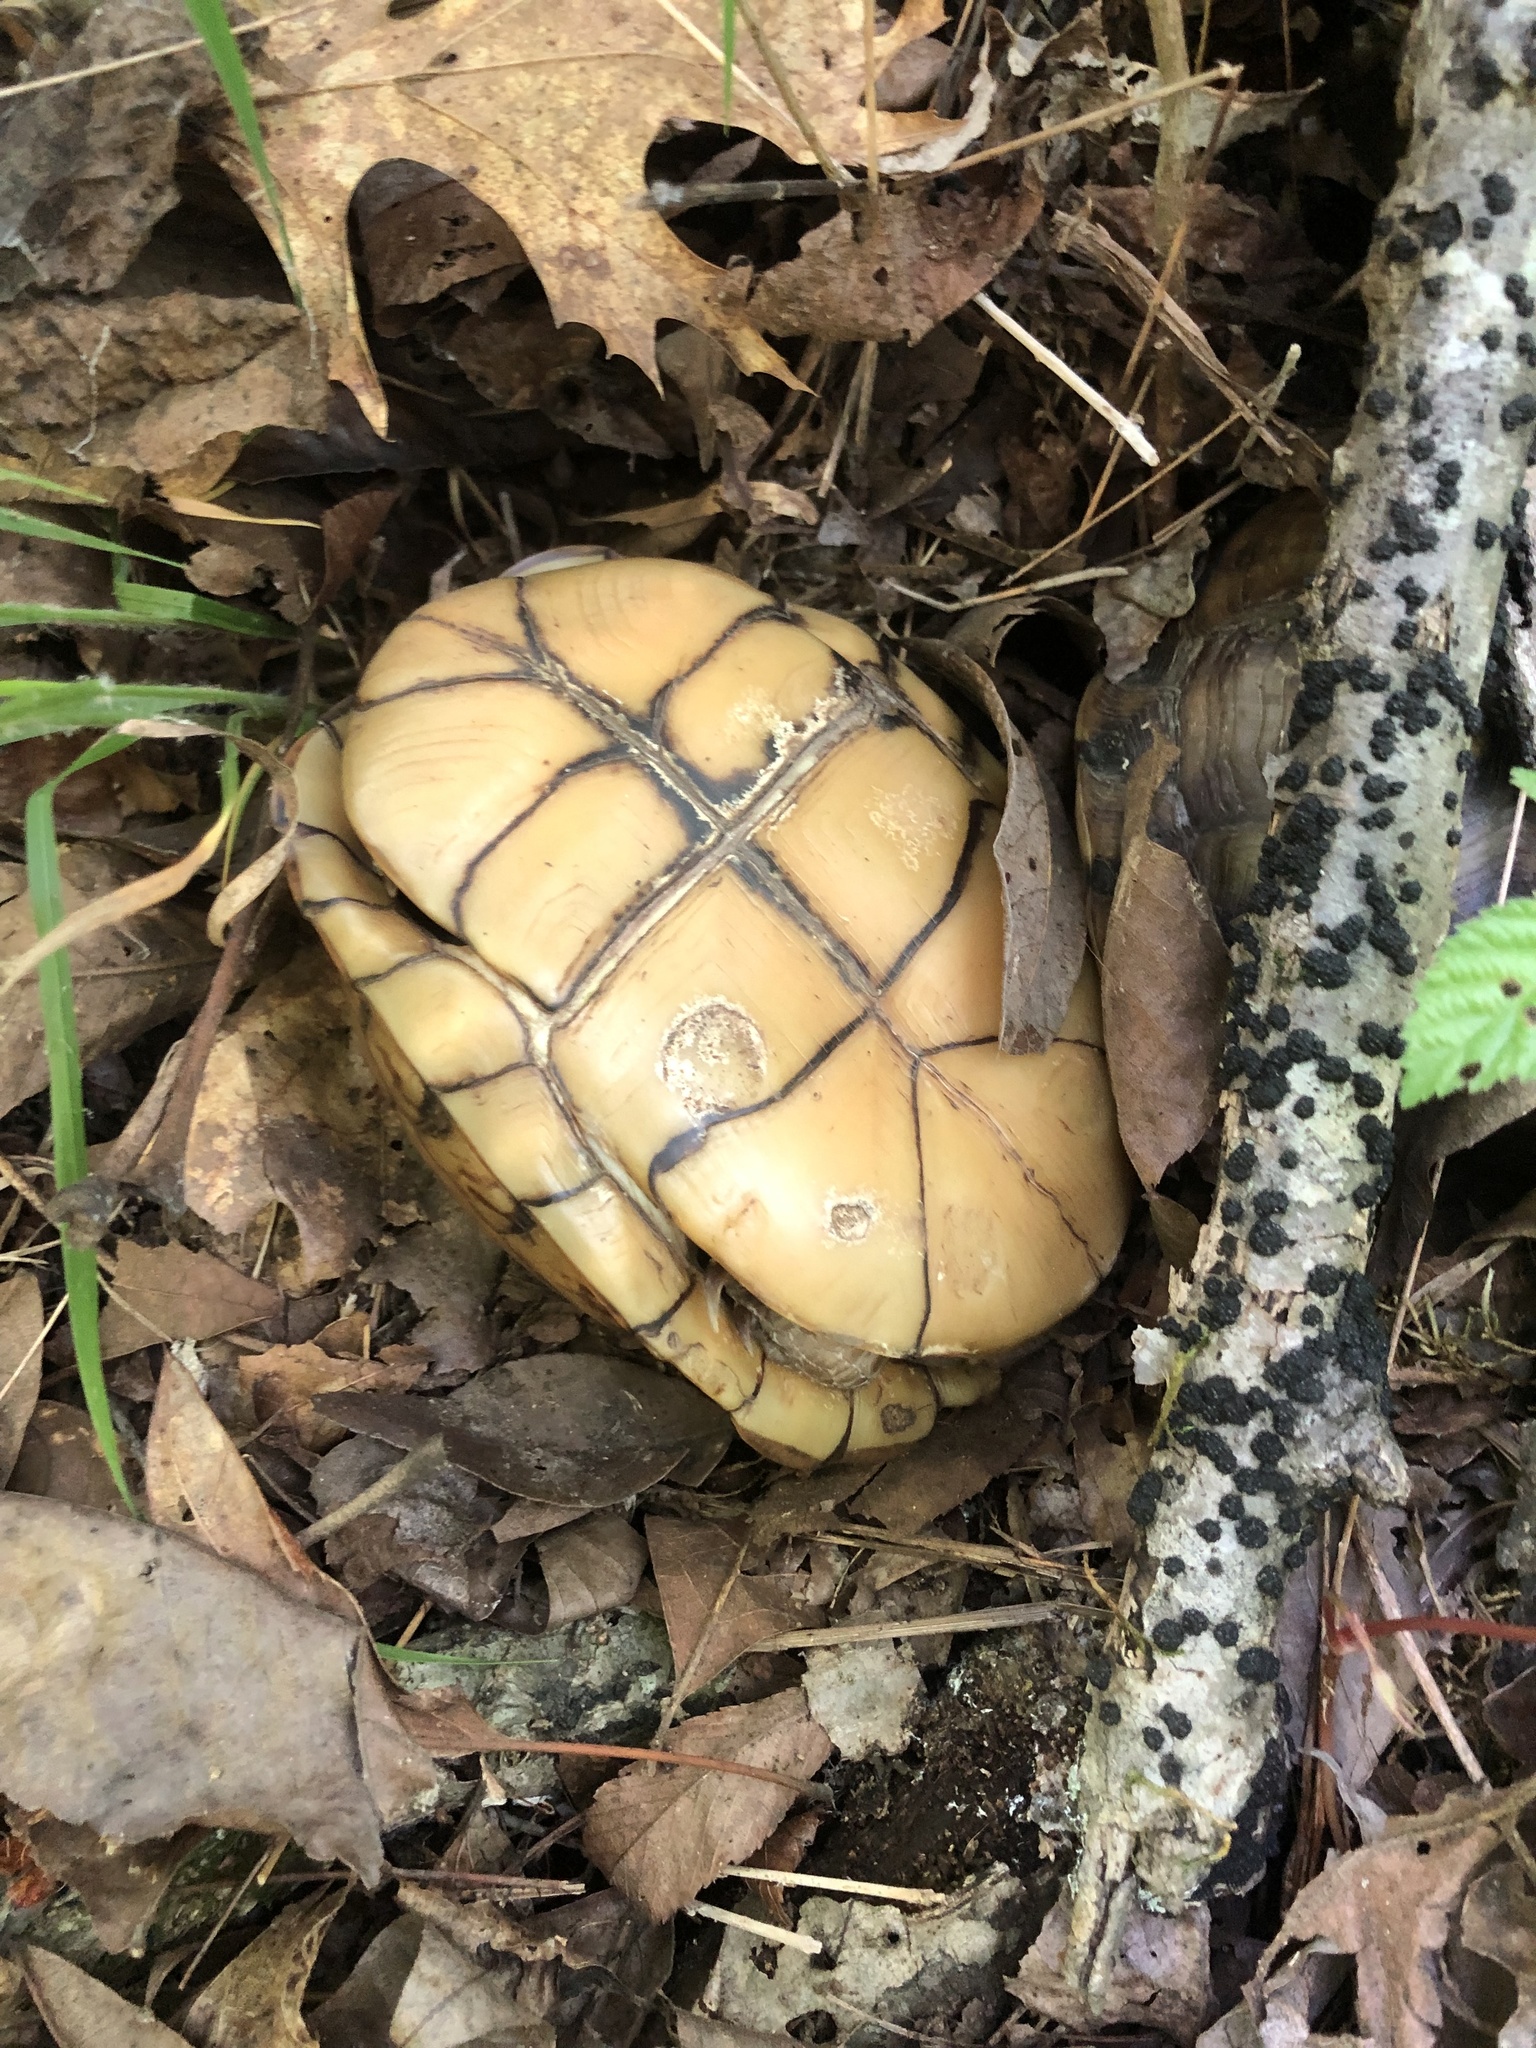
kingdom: Animalia
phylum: Chordata
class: Testudines
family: Emydidae
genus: Terrapene
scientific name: Terrapene carolina
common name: Common box turtle
